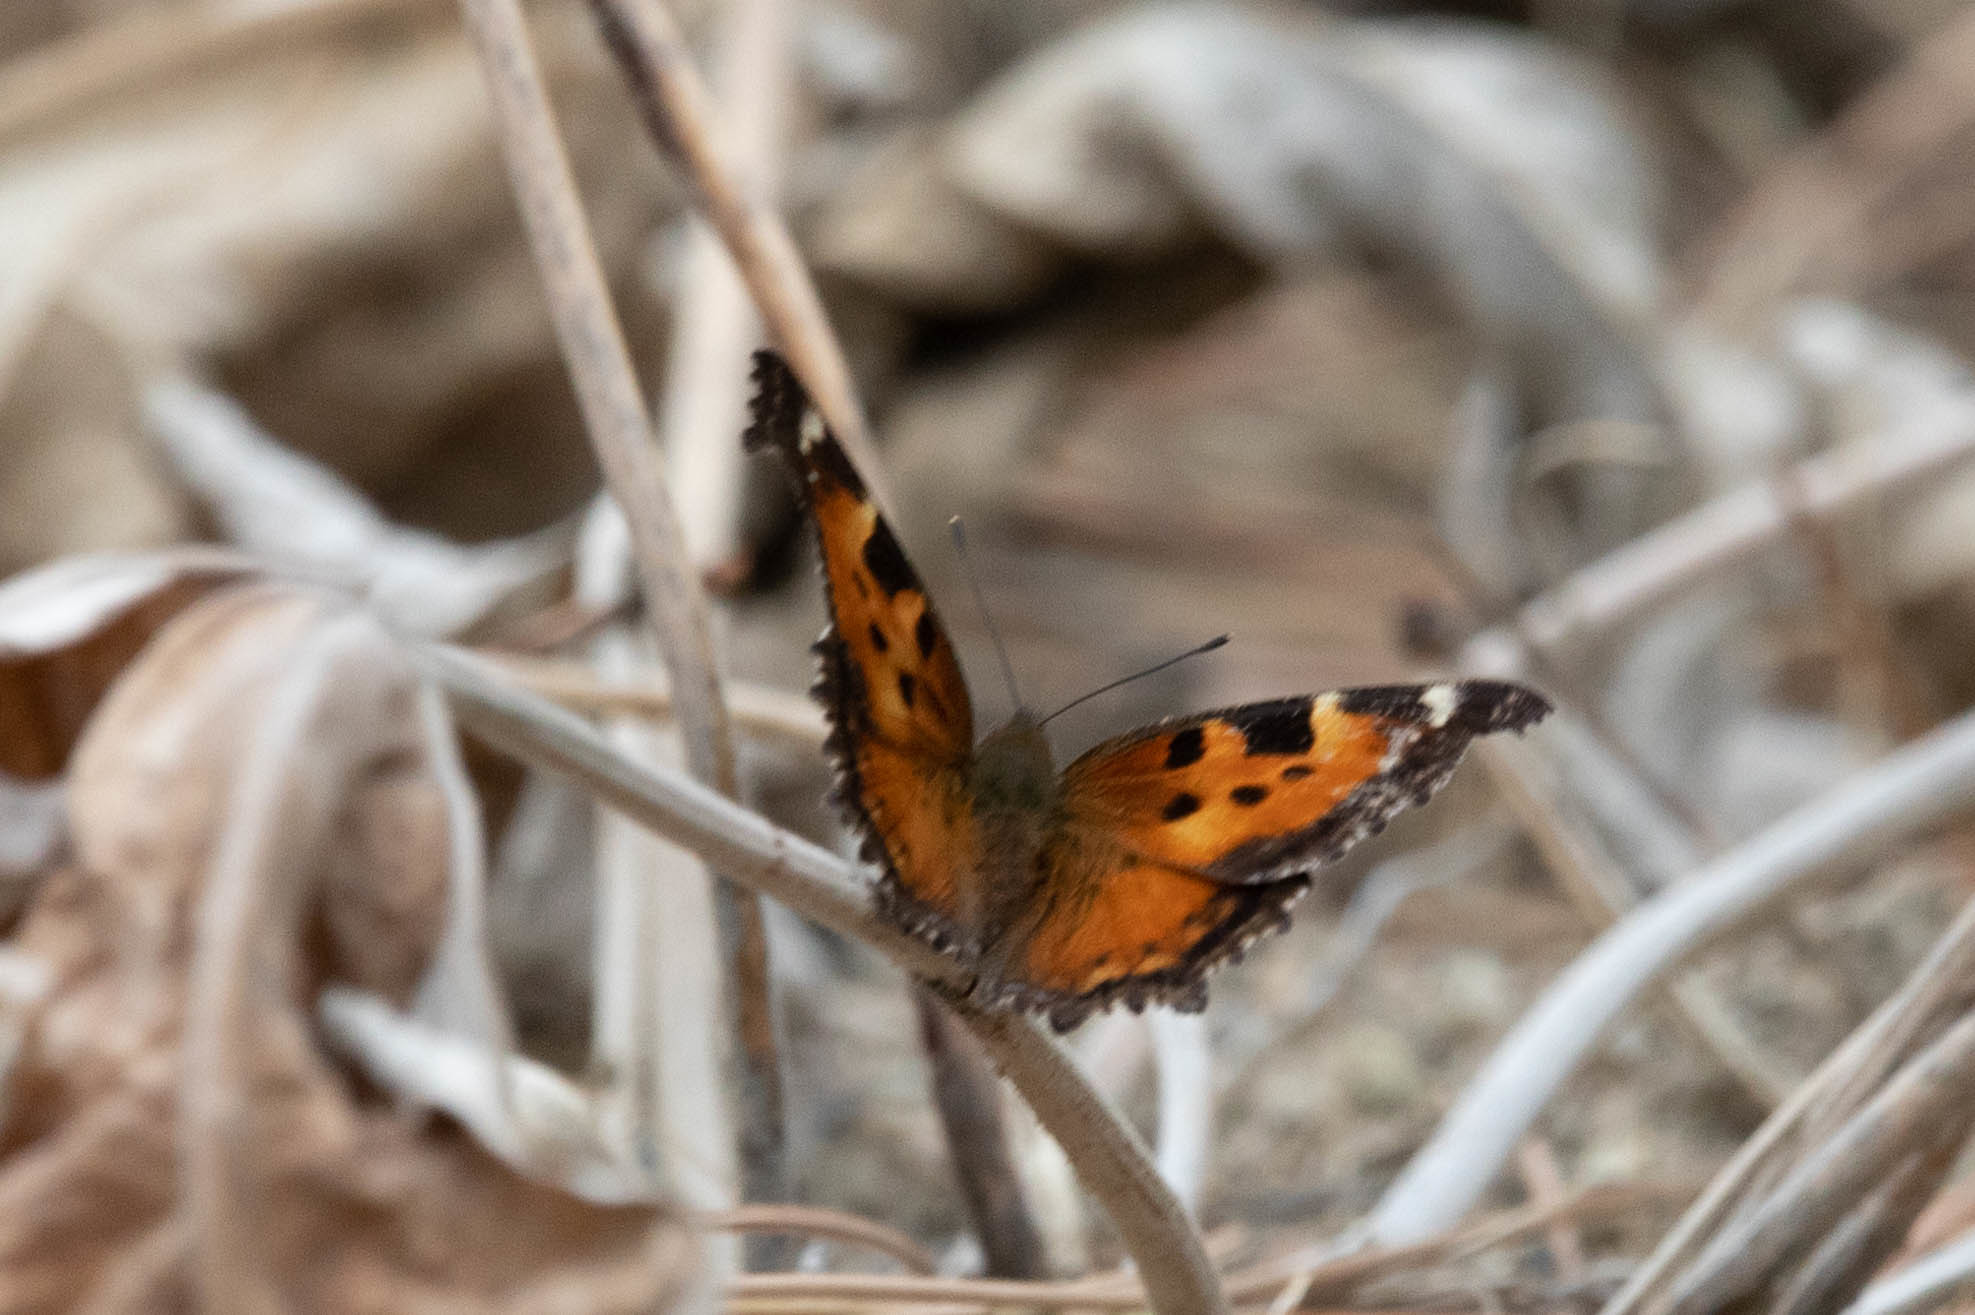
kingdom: Animalia
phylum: Arthropoda
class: Insecta
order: Lepidoptera
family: Nymphalidae
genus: Nymphalis
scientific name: Nymphalis californica
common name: California tortoiseshell
